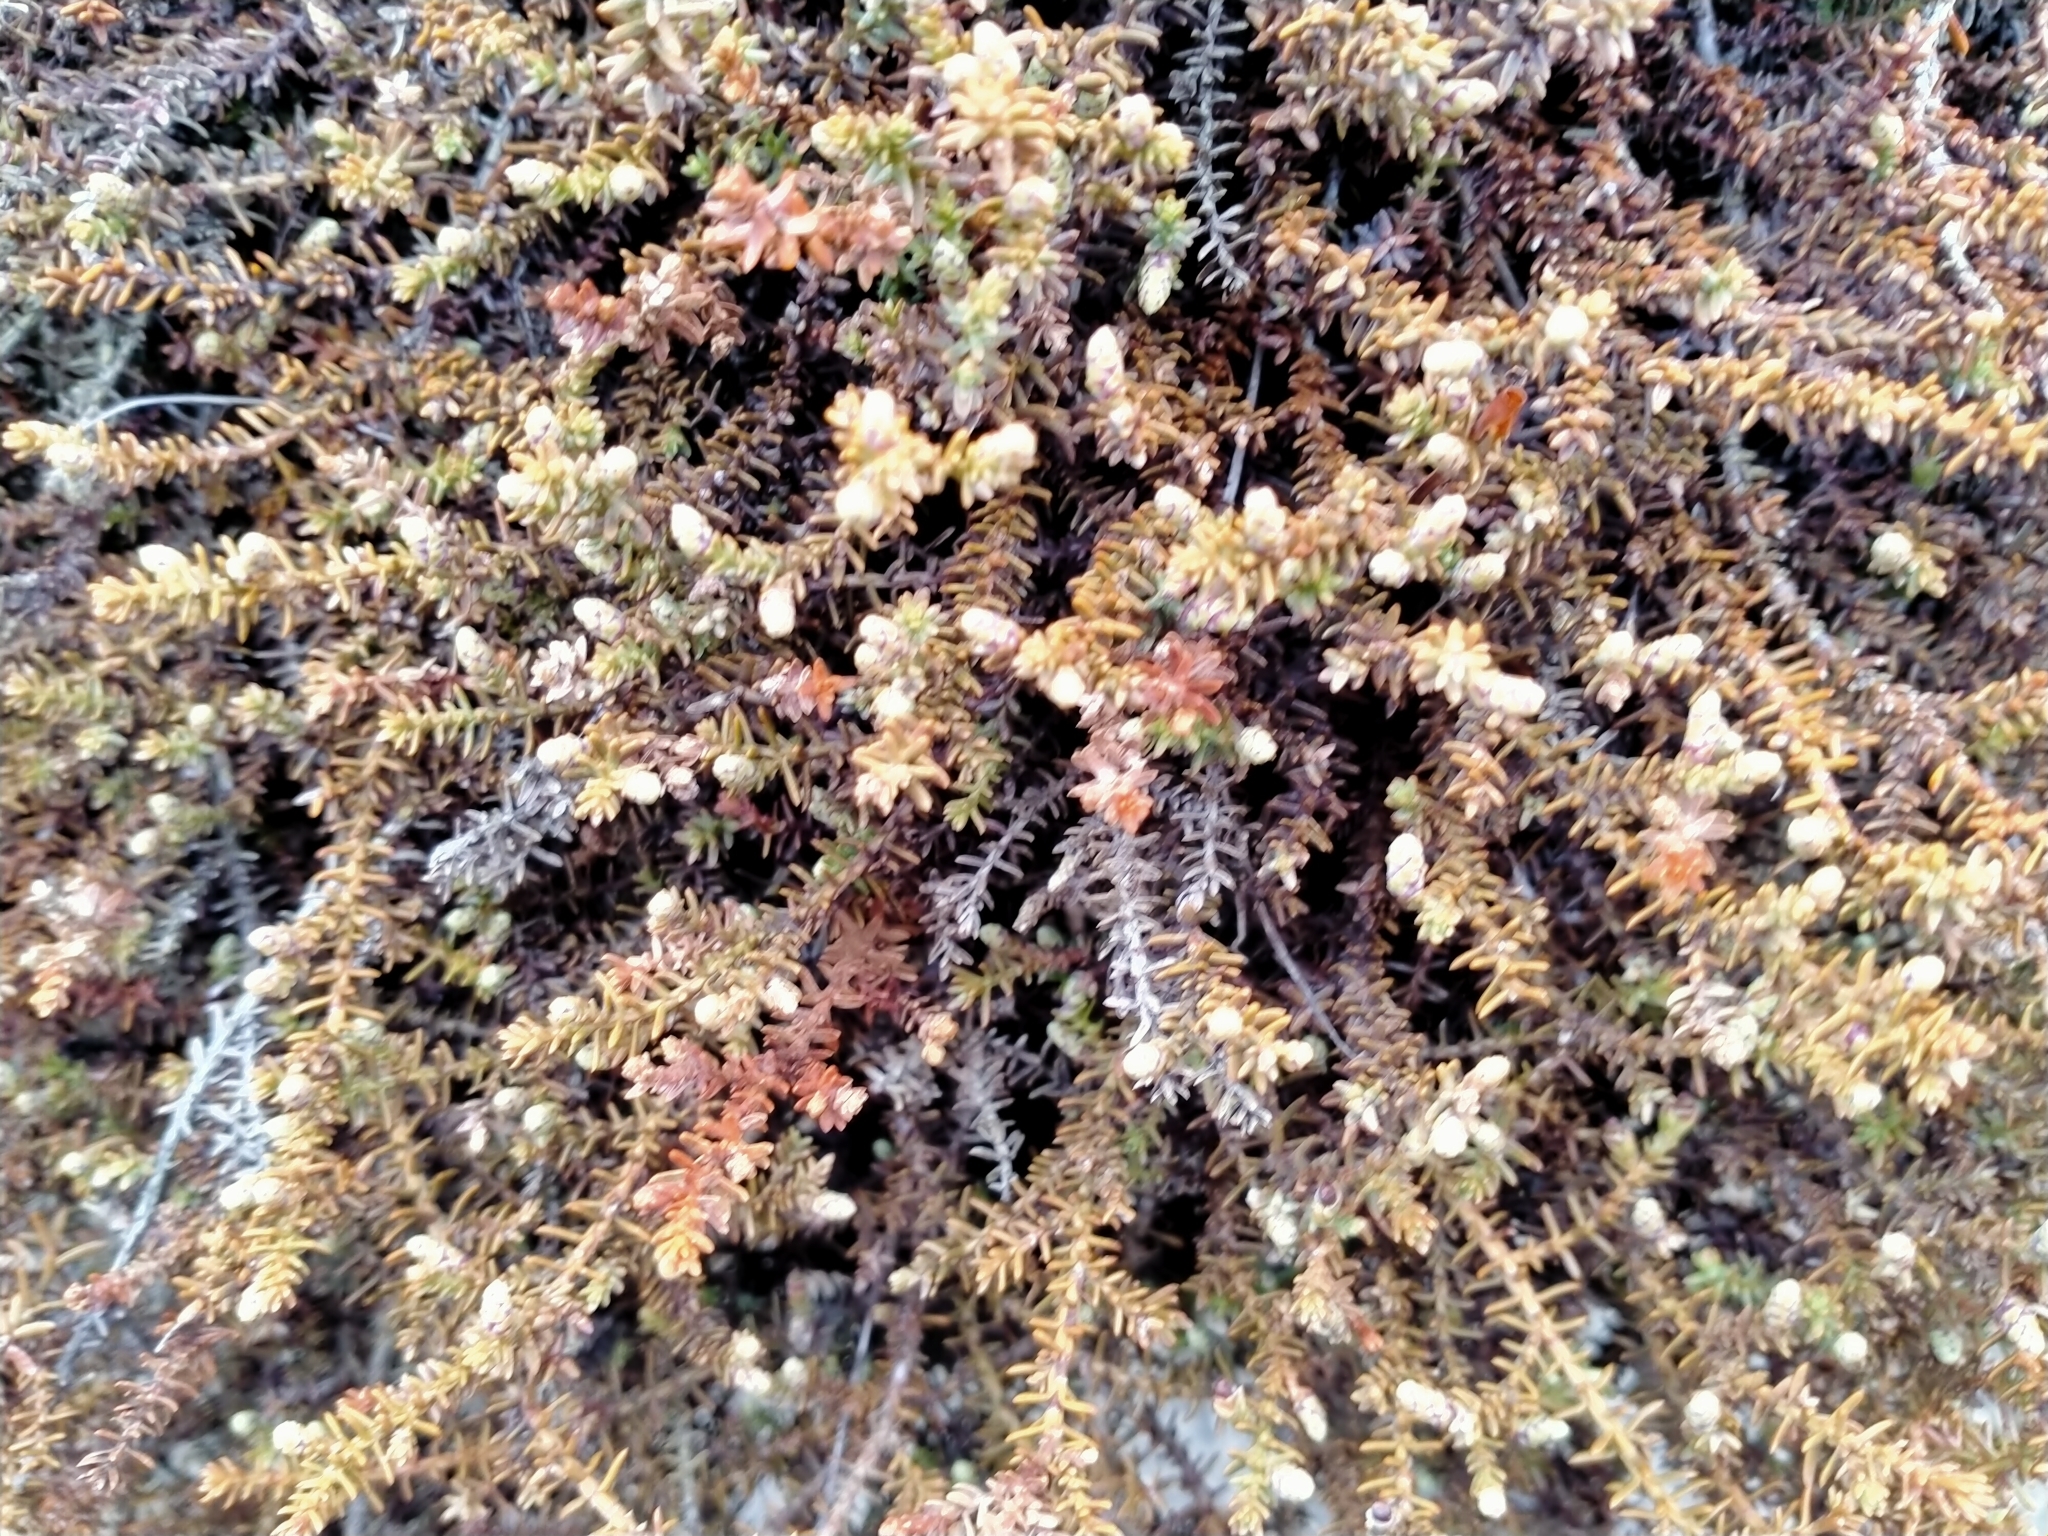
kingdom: Plantae
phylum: Tracheophyta
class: Pinopsida
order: Pinales
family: Podocarpaceae
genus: Lepidothamnus
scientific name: Lepidothamnus laxifolius
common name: Pygmy pine
